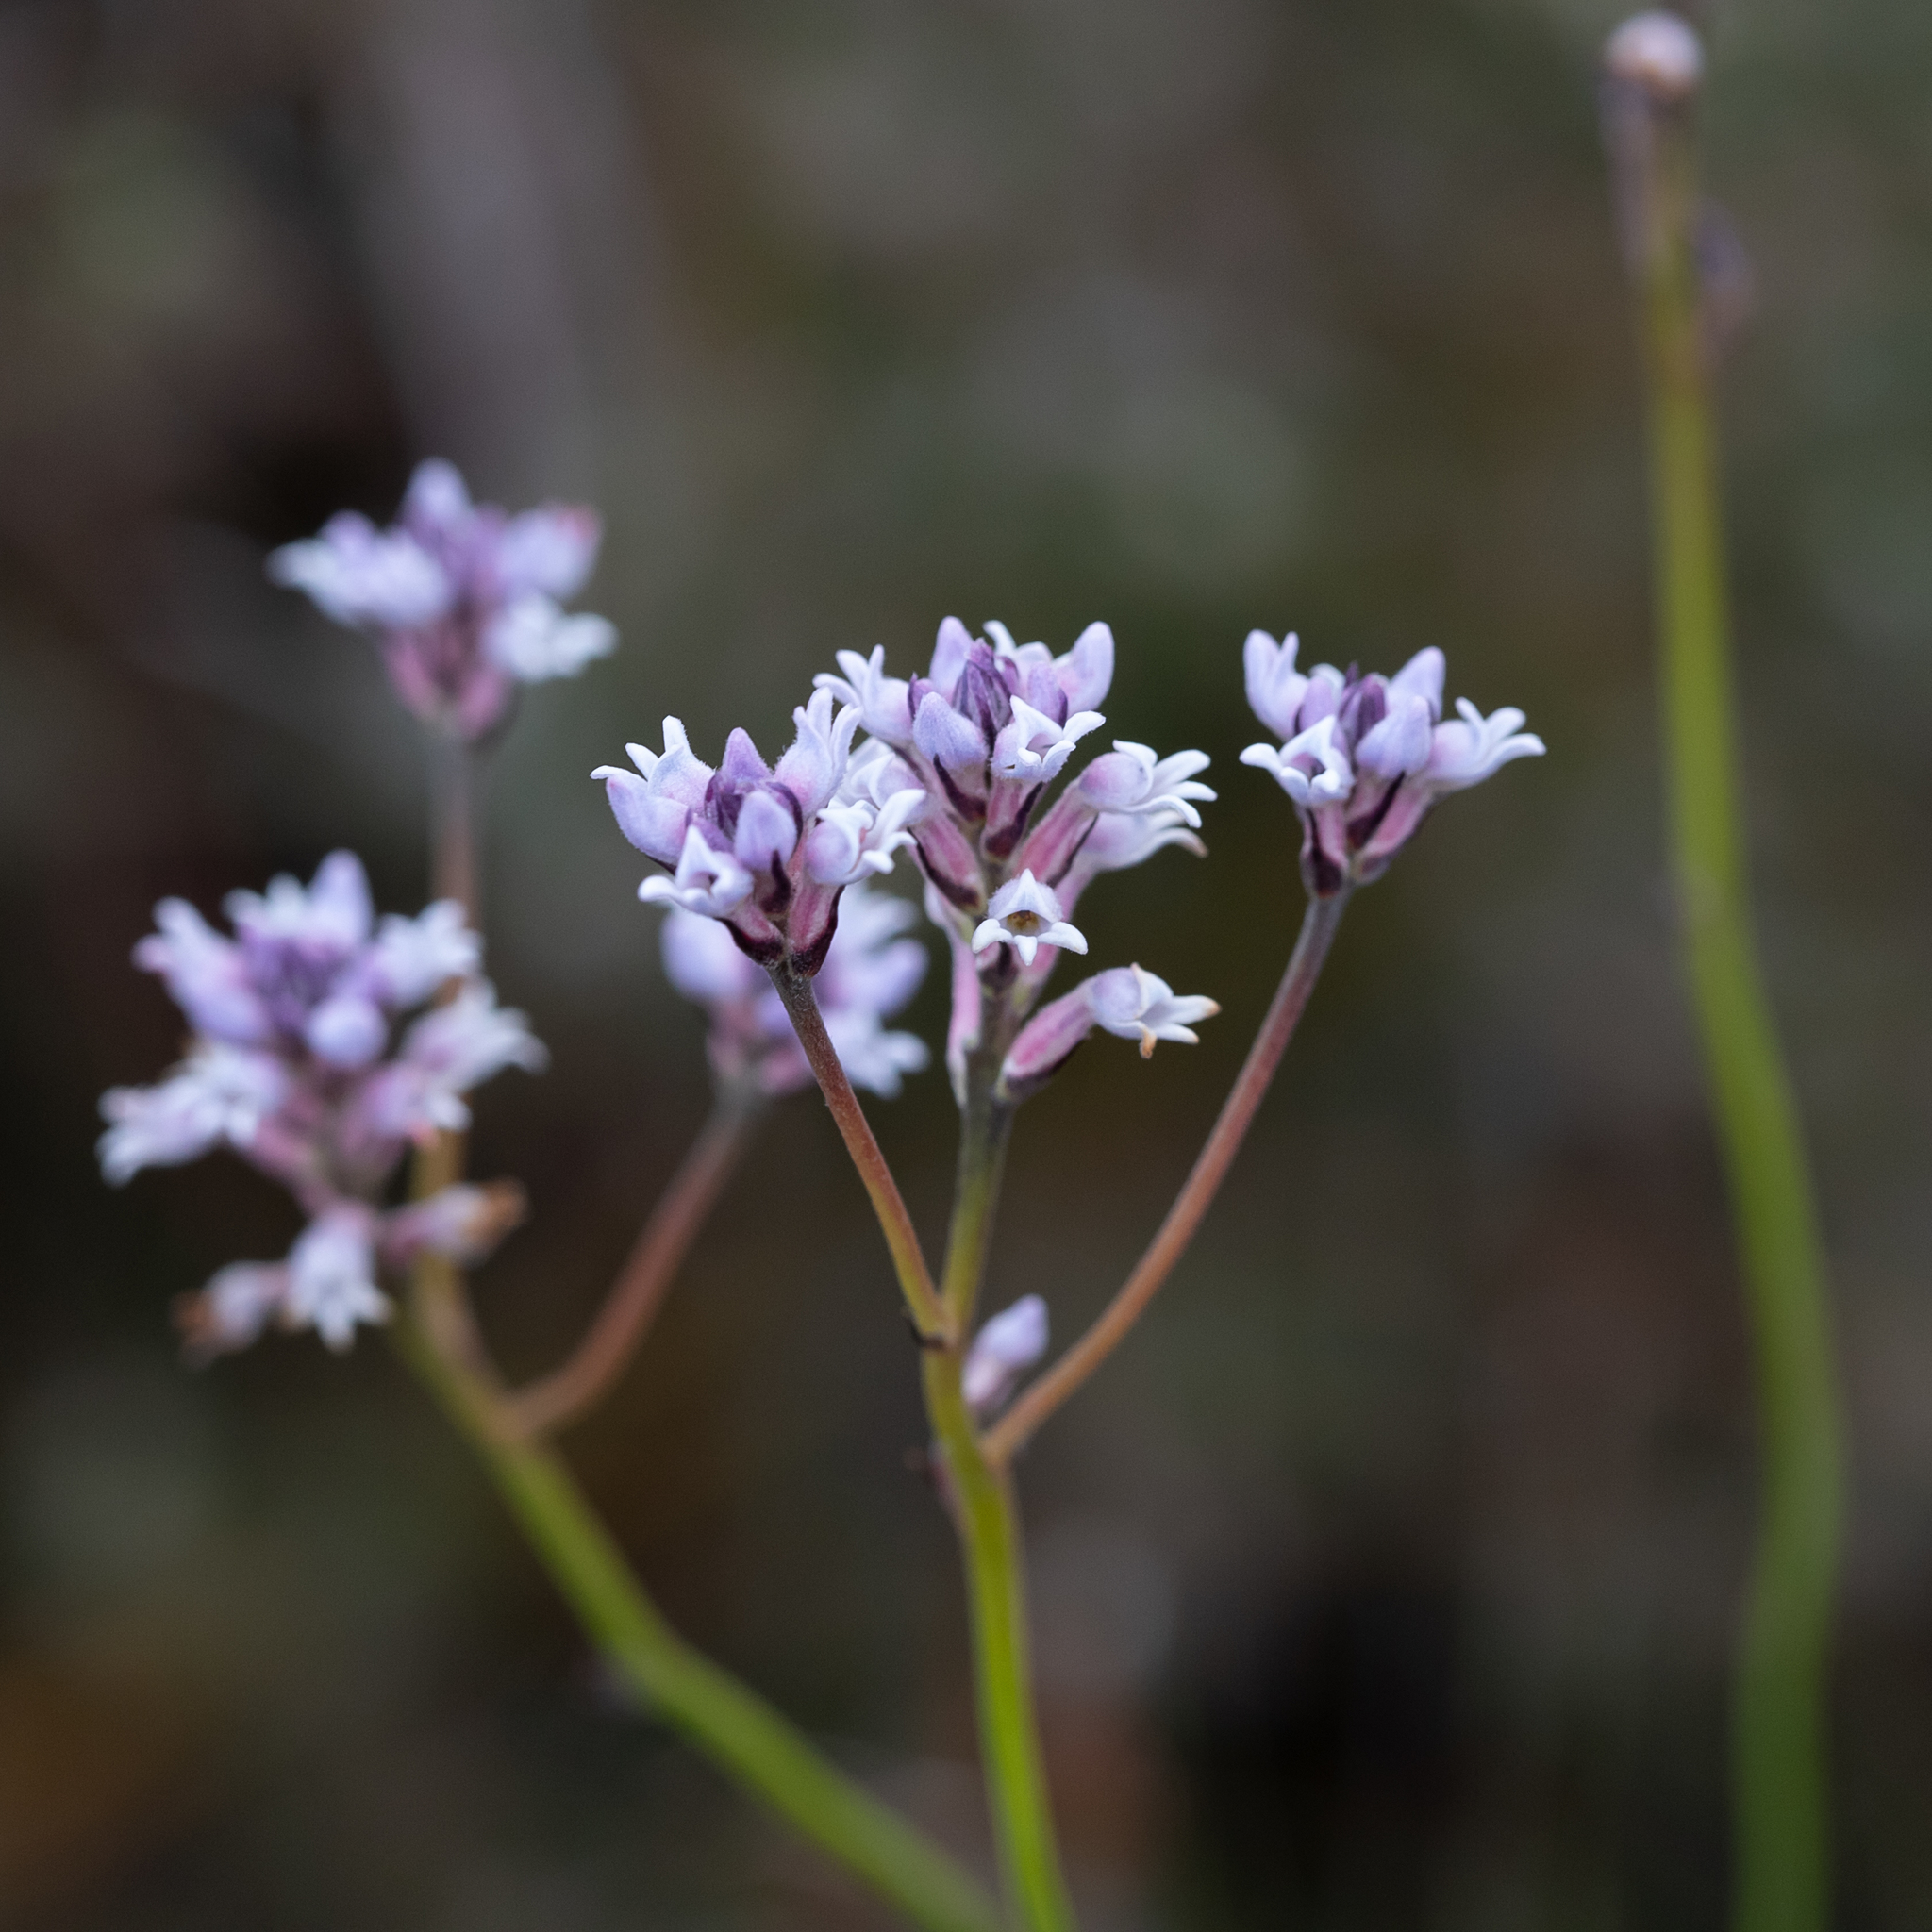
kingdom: Plantae
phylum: Tracheophyta
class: Magnoliopsida
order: Proteales
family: Proteaceae
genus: Conospermum
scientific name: Conospermum patens
